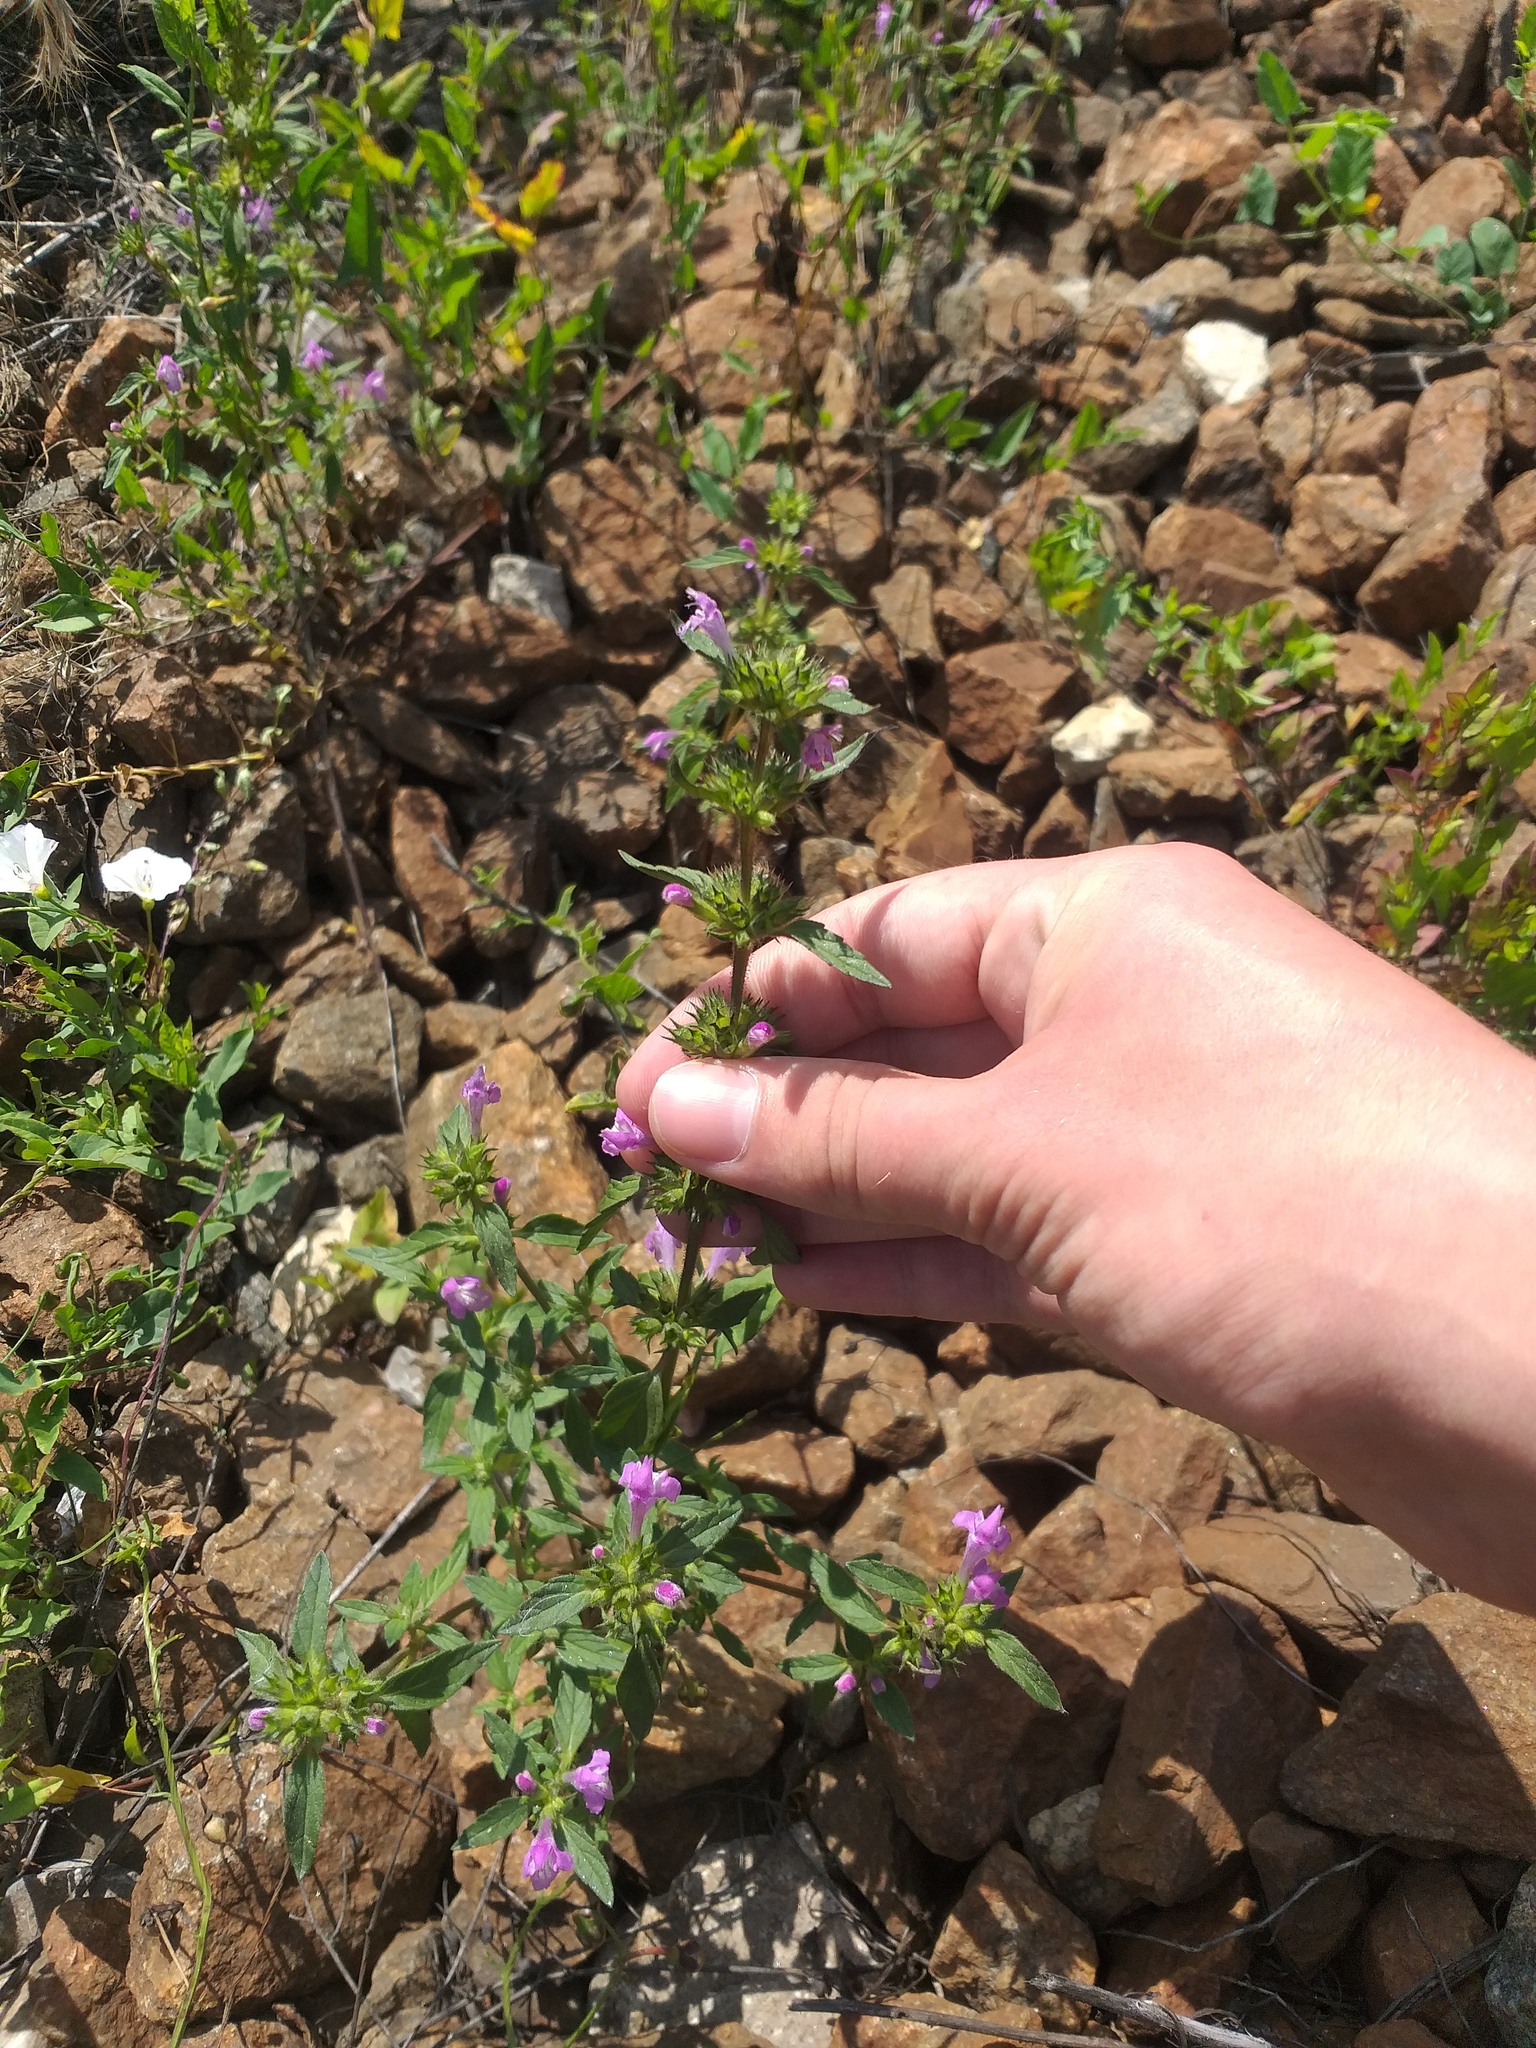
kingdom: Plantae
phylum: Tracheophyta
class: Magnoliopsida
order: Lamiales
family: Lamiaceae
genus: Galeopsis
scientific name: Galeopsis ladanum
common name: Broad-leaved hemp-nettle
